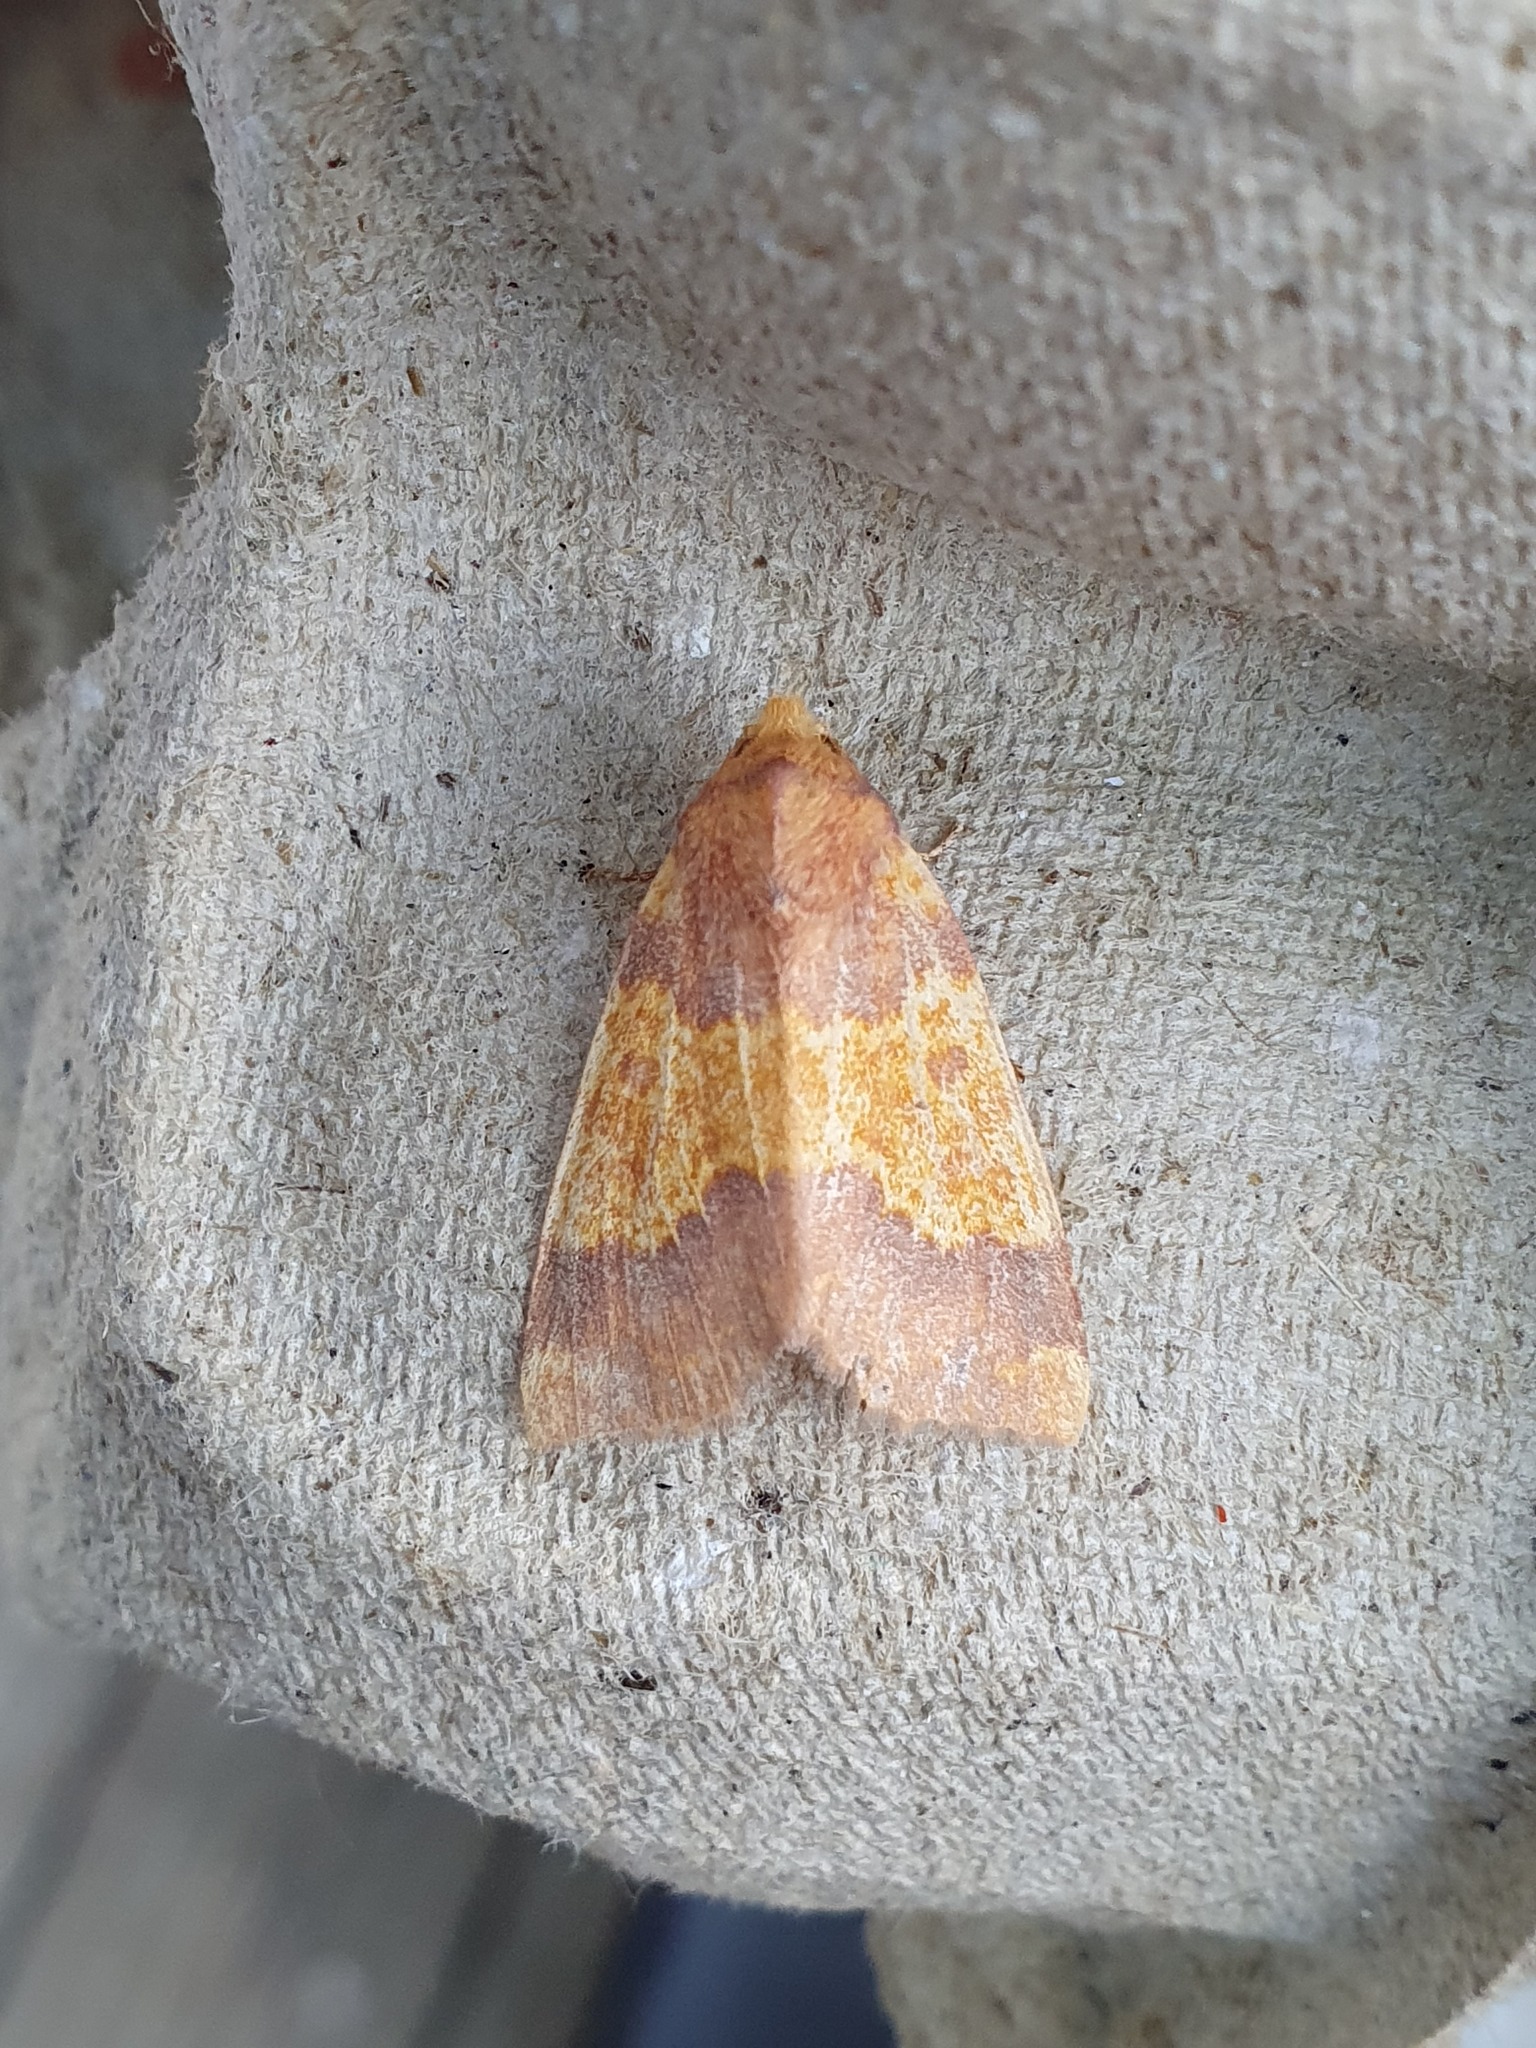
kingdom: Animalia
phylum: Arthropoda
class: Insecta
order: Lepidoptera
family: Noctuidae
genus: Tiliacea
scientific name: Tiliacea aurago
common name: Barred sallow
